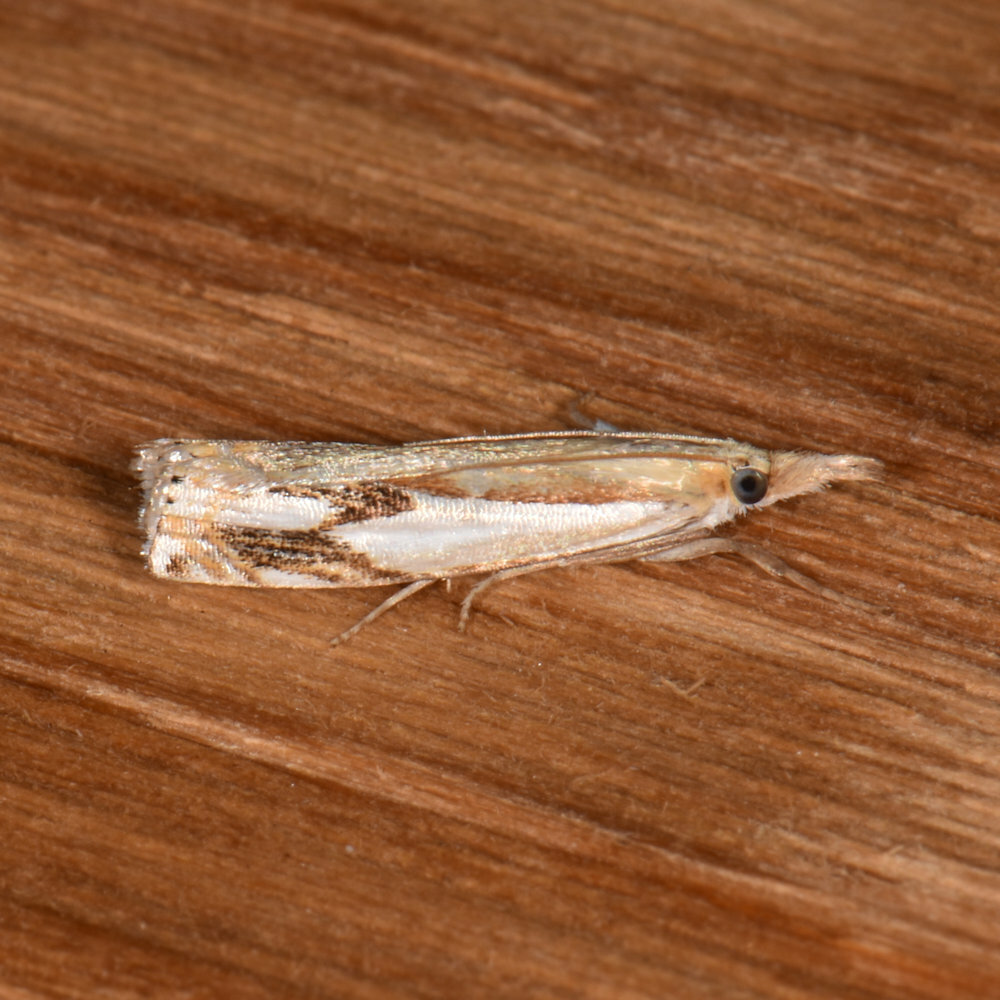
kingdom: Animalia
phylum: Arthropoda
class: Insecta
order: Lepidoptera
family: Crambidae
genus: Crambus
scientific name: Crambus agitatellus
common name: Double-banded grass-veneer
